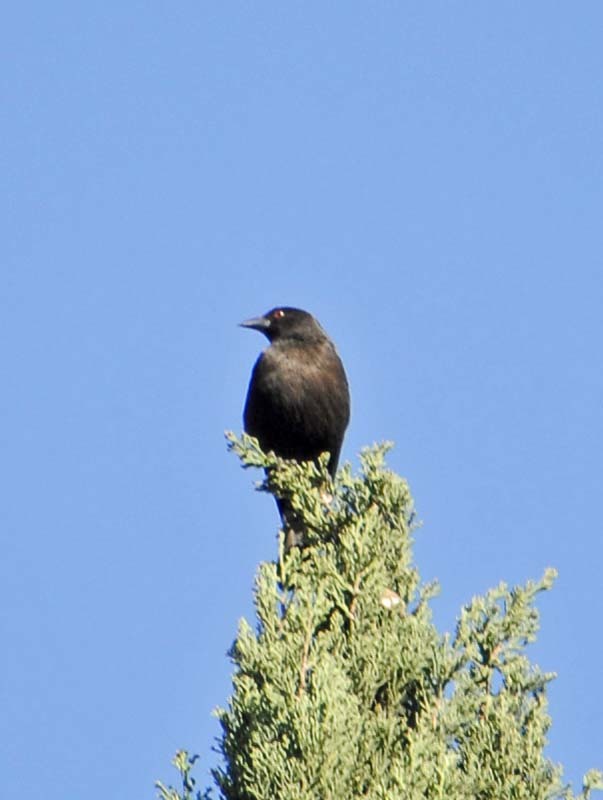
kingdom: Animalia
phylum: Chordata
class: Aves
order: Passeriformes
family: Icteridae
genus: Molothrus
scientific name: Molothrus aeneus
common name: Bronzed cowbird
